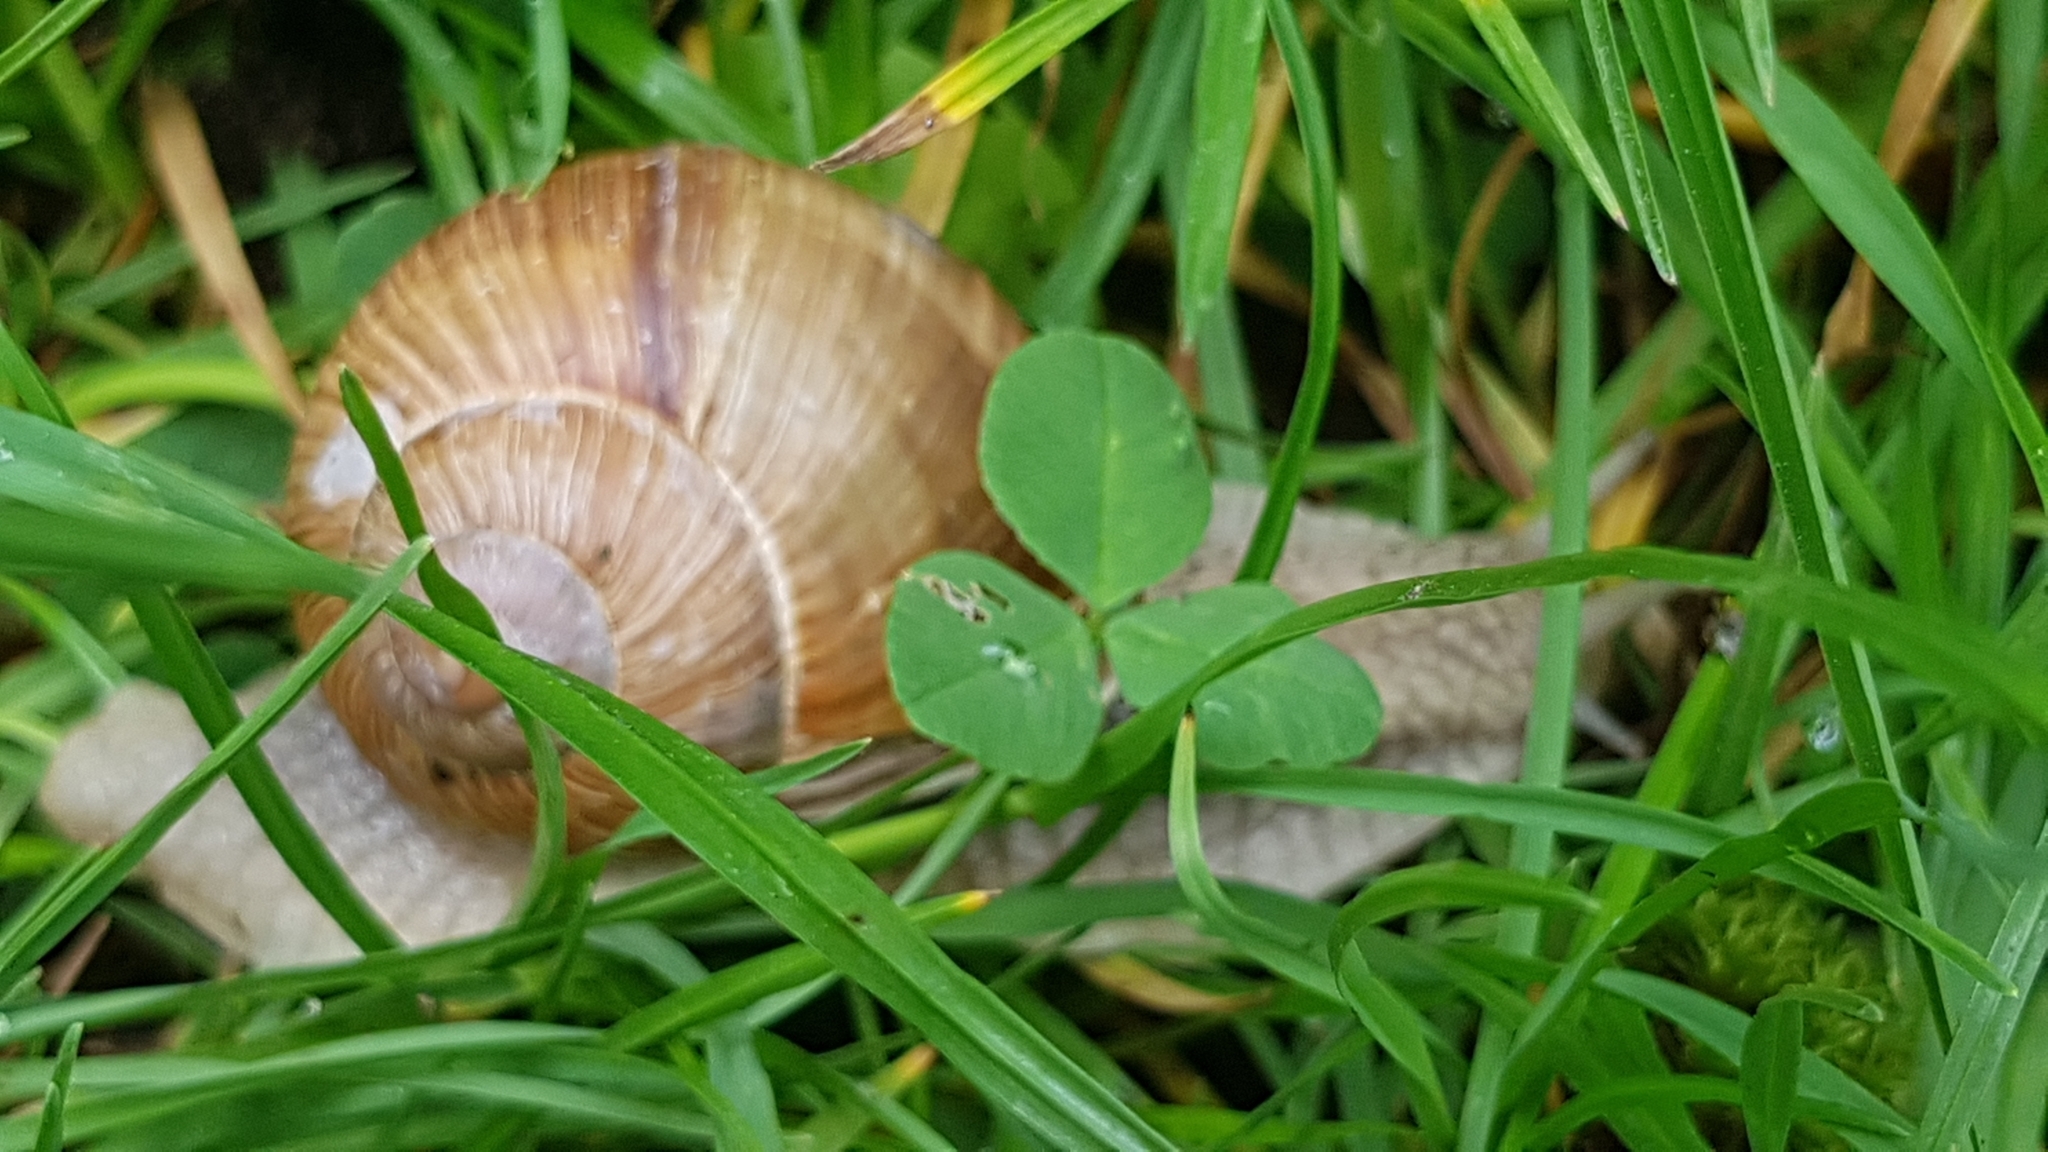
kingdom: Animalia
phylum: Mollusca
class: Gastropoda
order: Stylommatophora
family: Helicidae
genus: Helix
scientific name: Helix pomatia
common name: Roman snail
